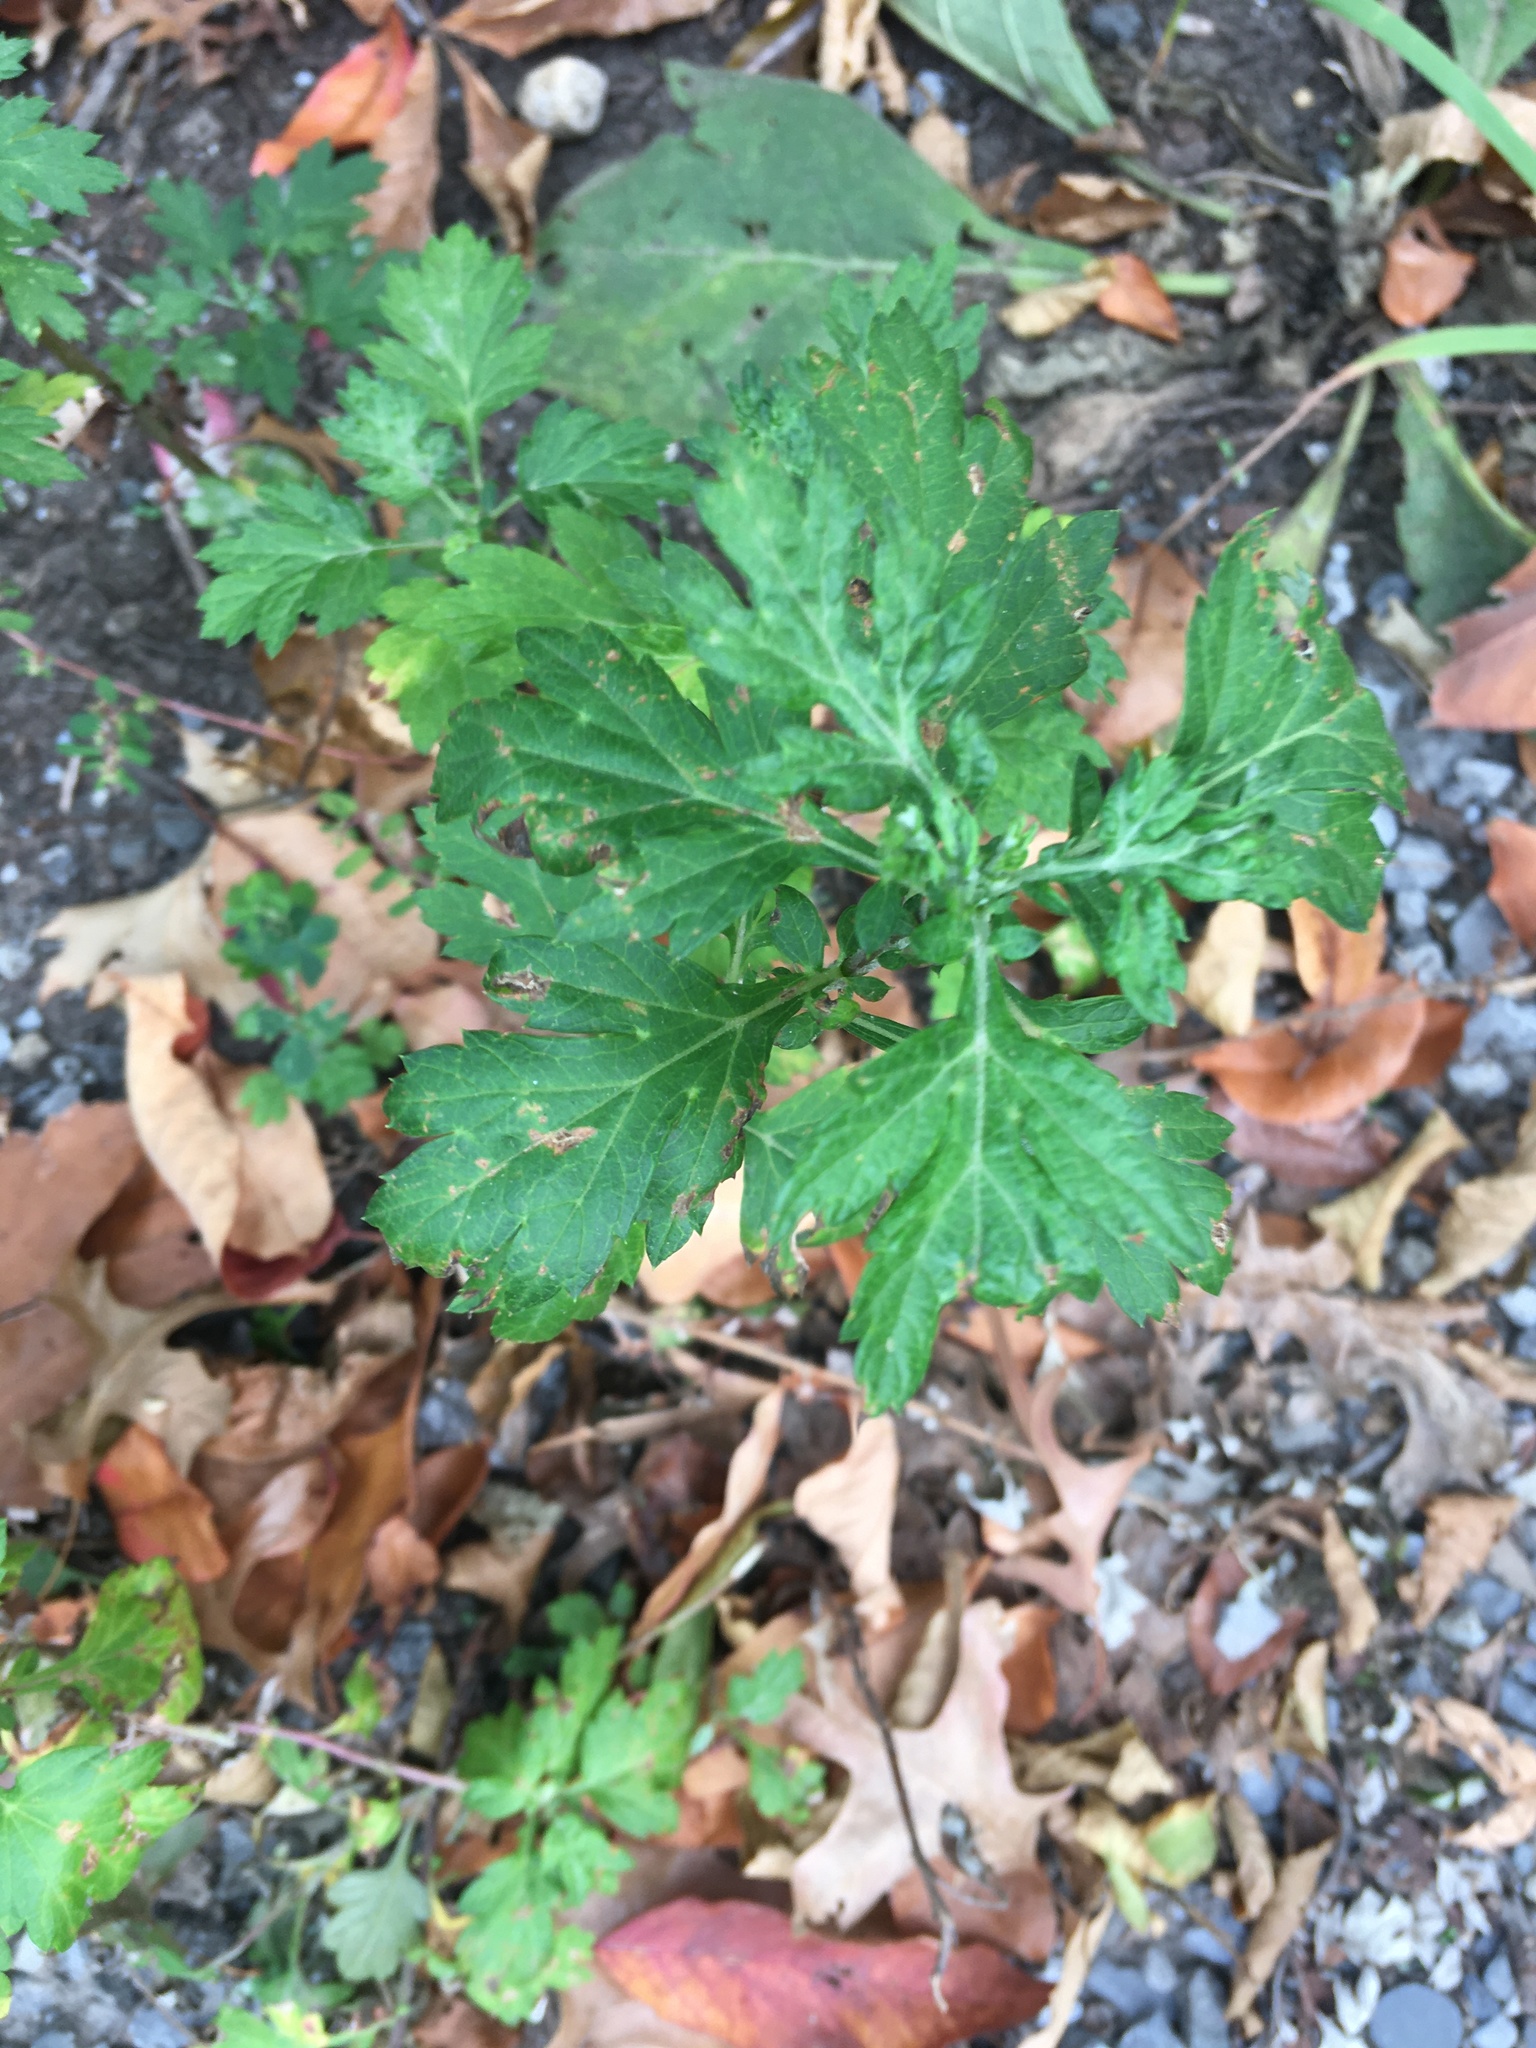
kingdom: Plantae
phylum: Tracheophyta
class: Magnoliopsida
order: Asterales
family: Asteraceae
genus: Artemisia
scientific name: Artemisia vulgaris
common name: Mugwort
